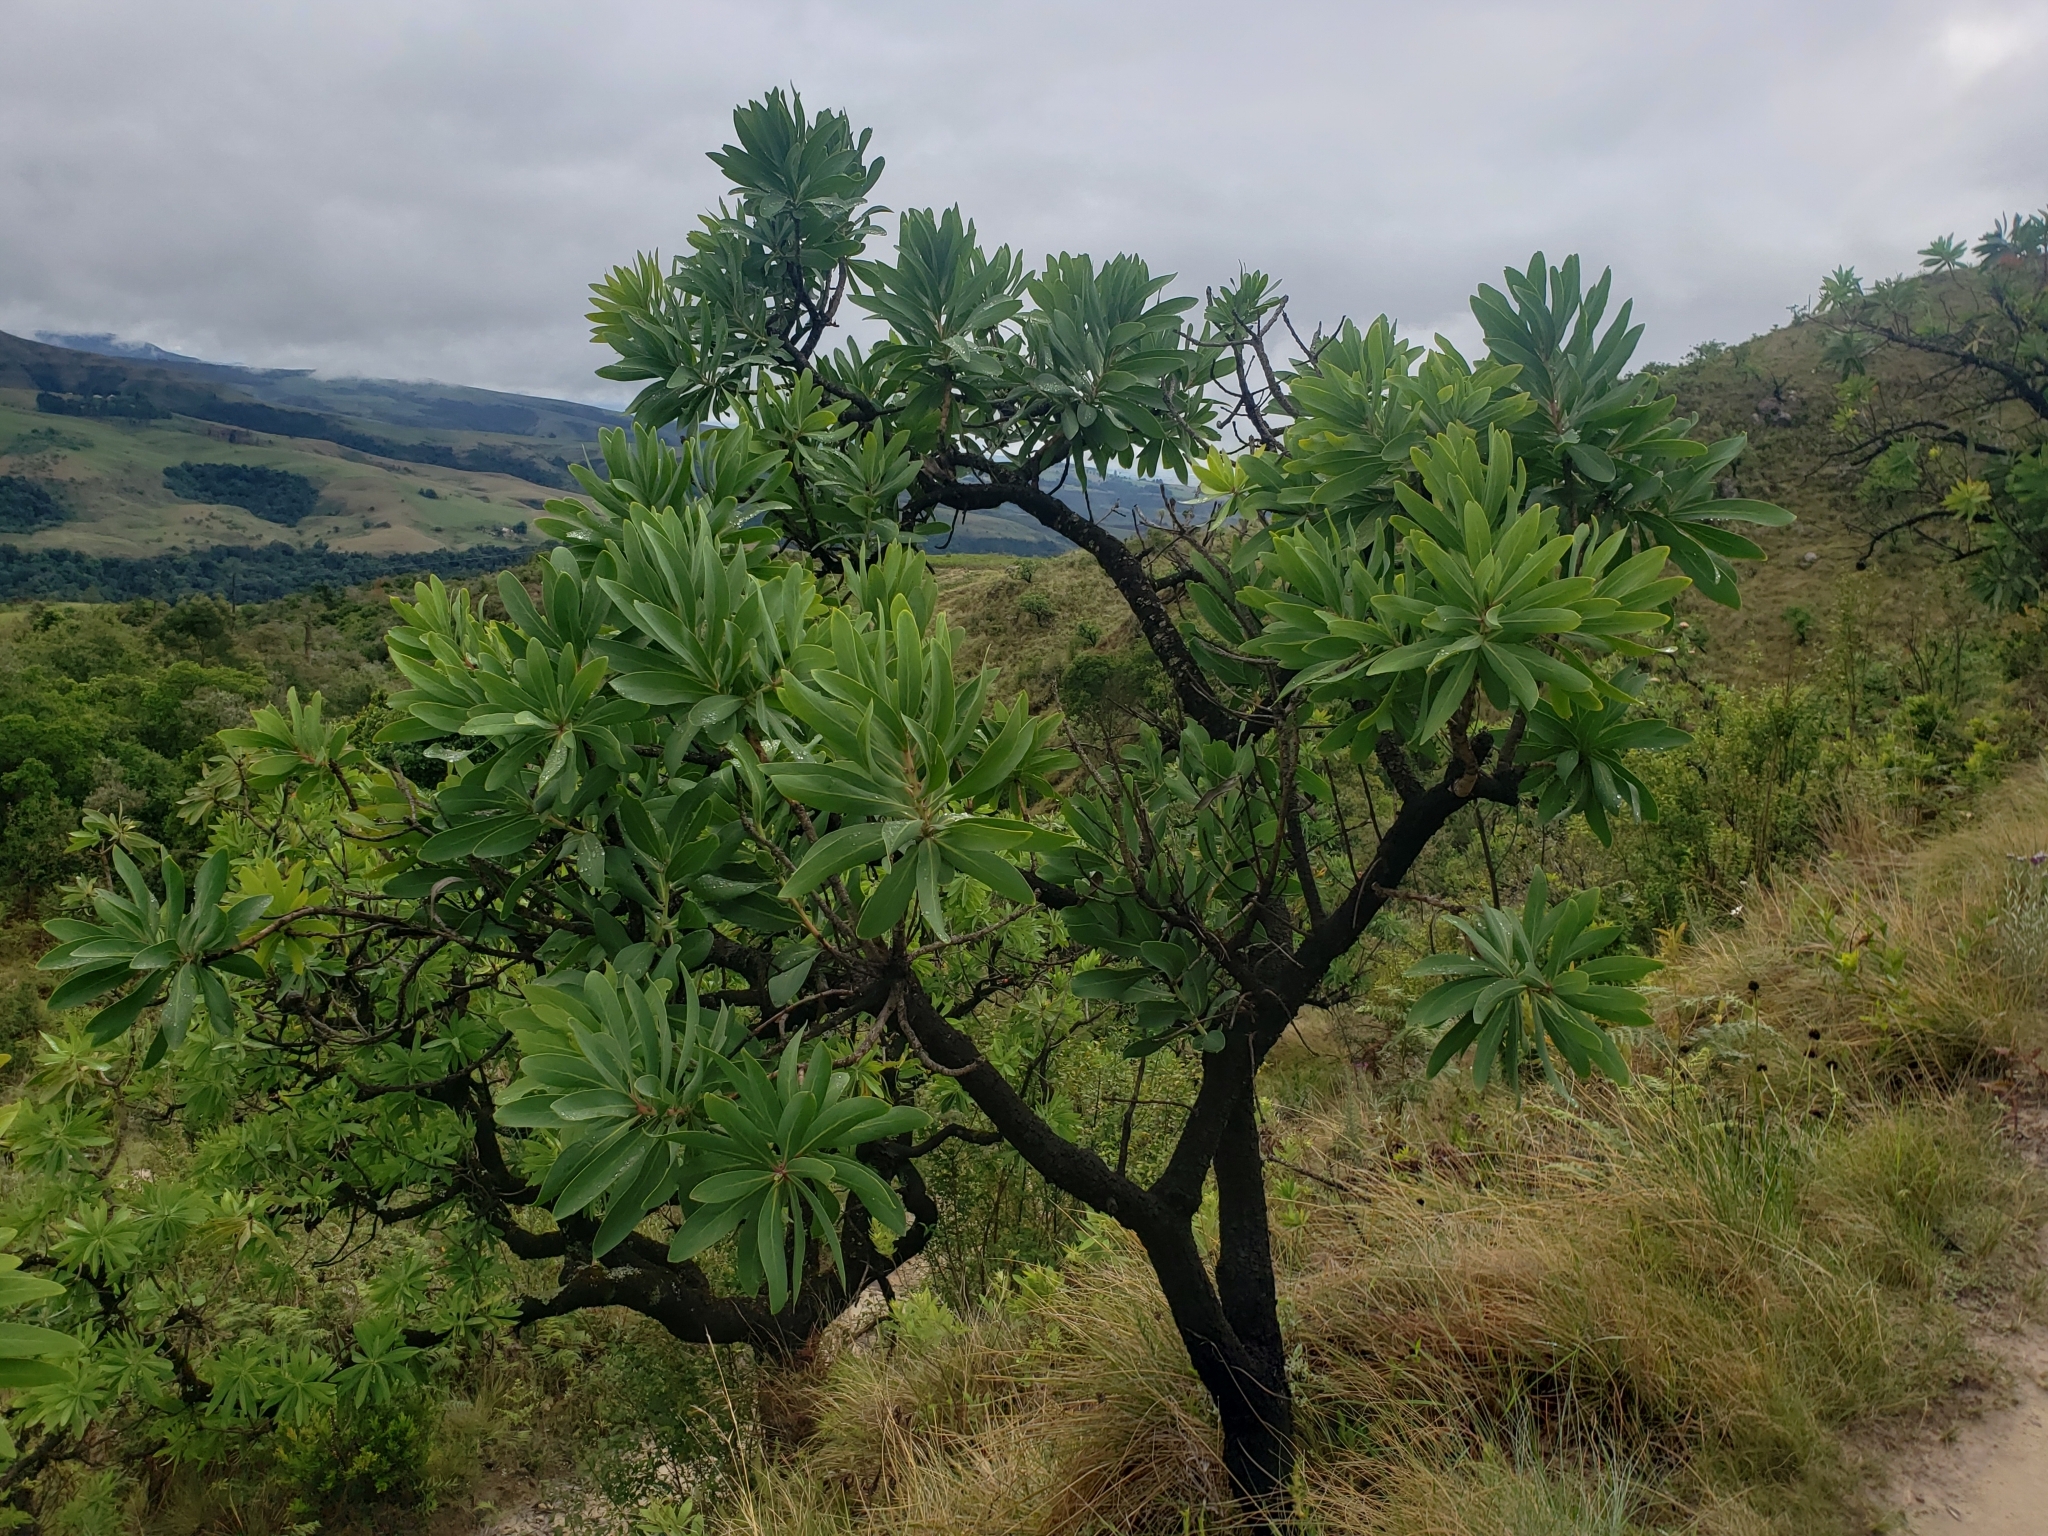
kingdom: Plantae
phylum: Tracheophyta
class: Magnoliopsida
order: Proteales
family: Proteaceae
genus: Protea
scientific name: Protea caffra
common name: Common sugarbush
